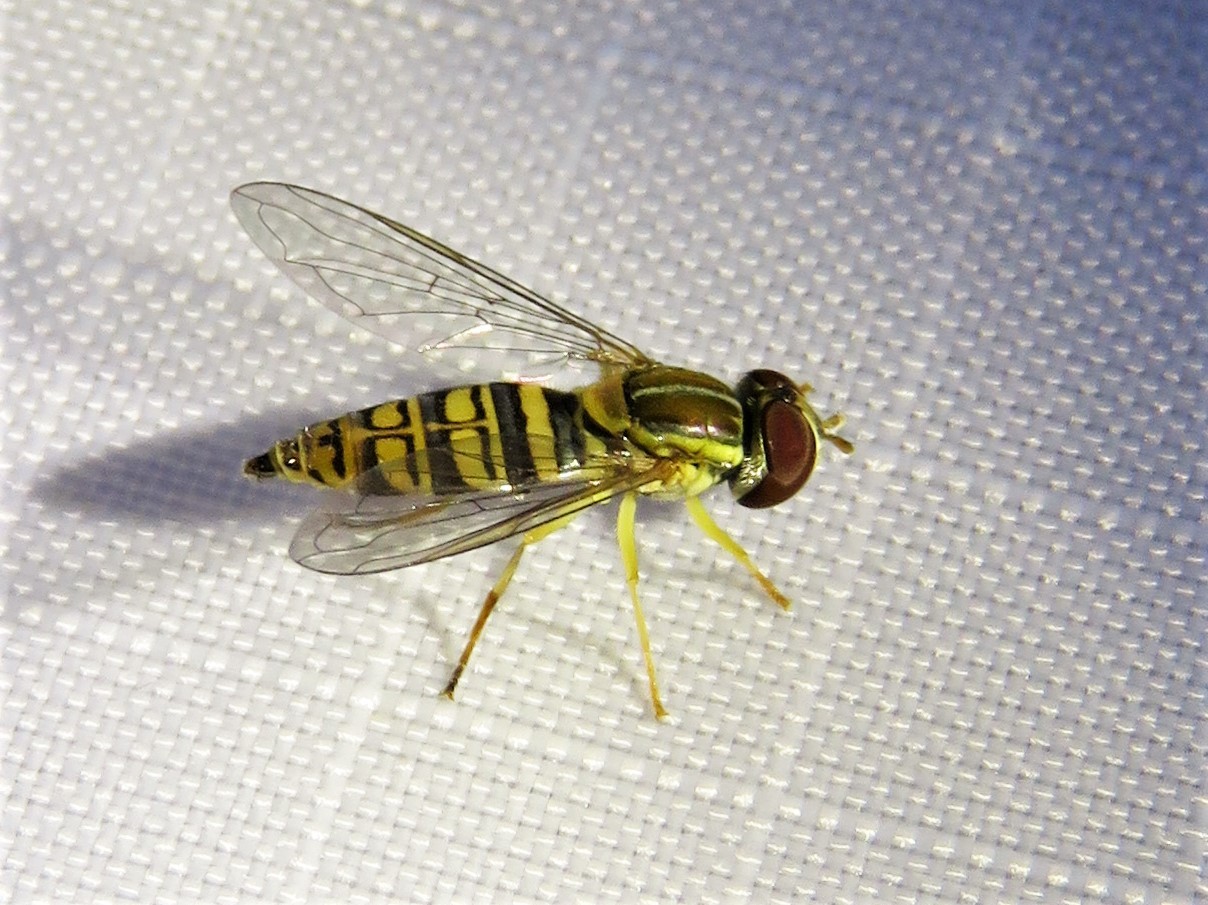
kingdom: Animalia
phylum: Arthropoda
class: Insecta
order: Diptera
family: Syrphidae
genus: Toxomerus
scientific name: Toxomerus politus
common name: Maize calligrapher
